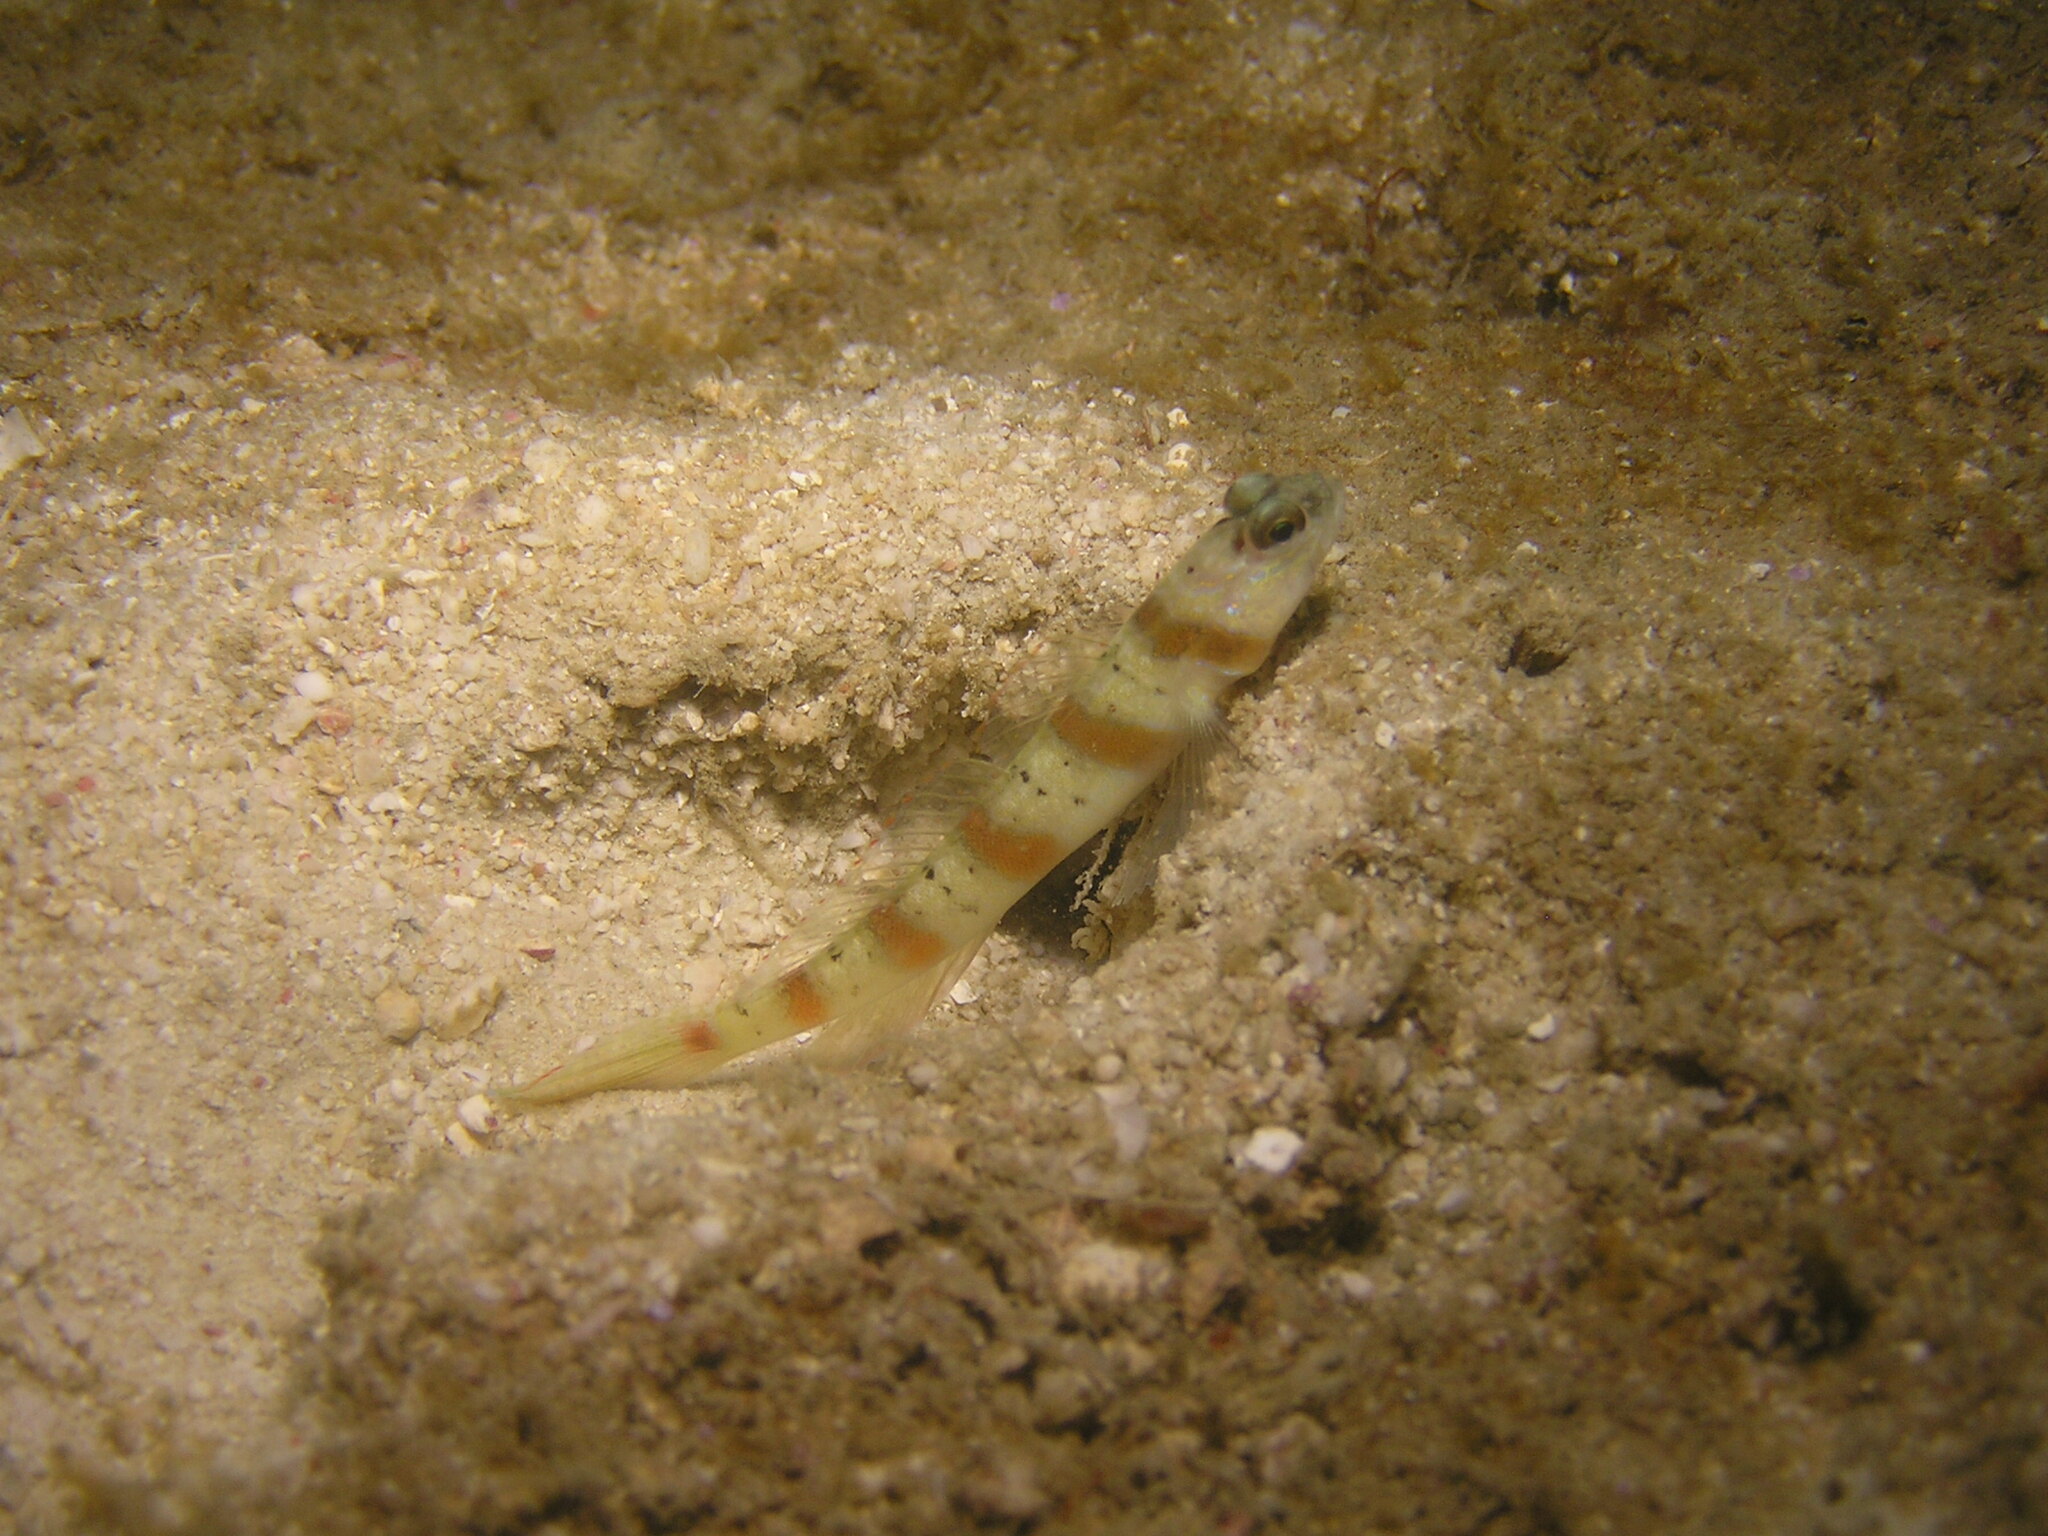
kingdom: Animalia
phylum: Chordata
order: Perciformes
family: Gobiidae
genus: Amblyeleotris
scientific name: Amblyeleotris rubrimarginata
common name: Redmargin shrimpgoby
